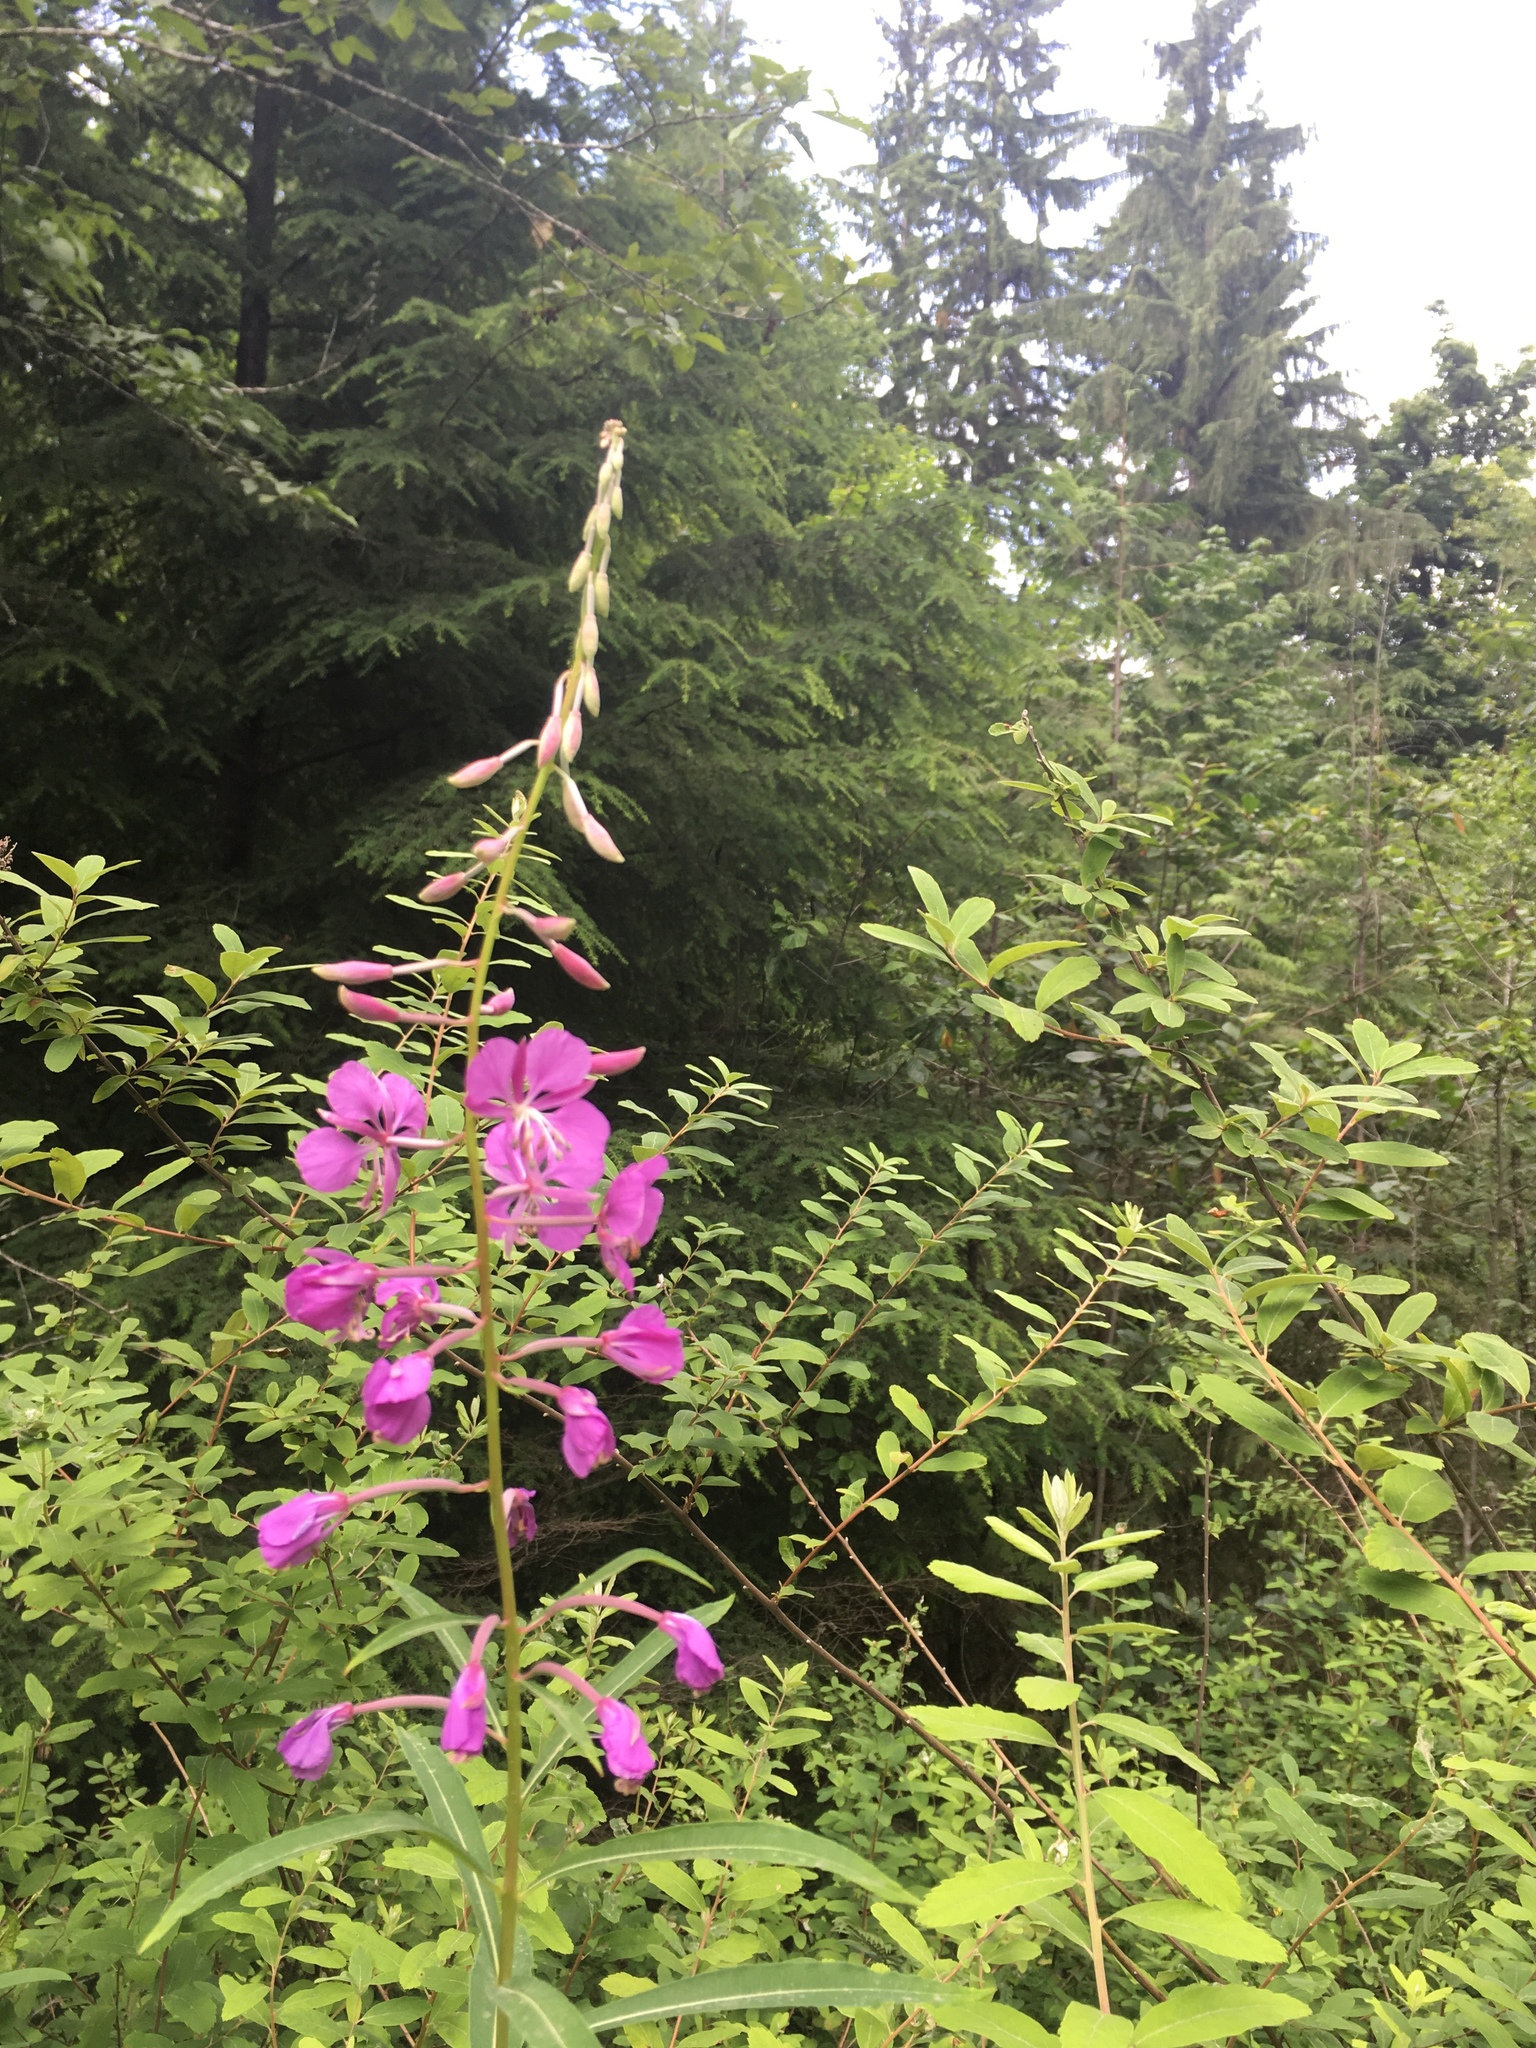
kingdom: Plantae
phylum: Tracheophyta
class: Magnoliopsida
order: Myrtales
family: Onagraceae
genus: Chamaenerion
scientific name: Chamaenerion angustifolium
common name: Fireweed
